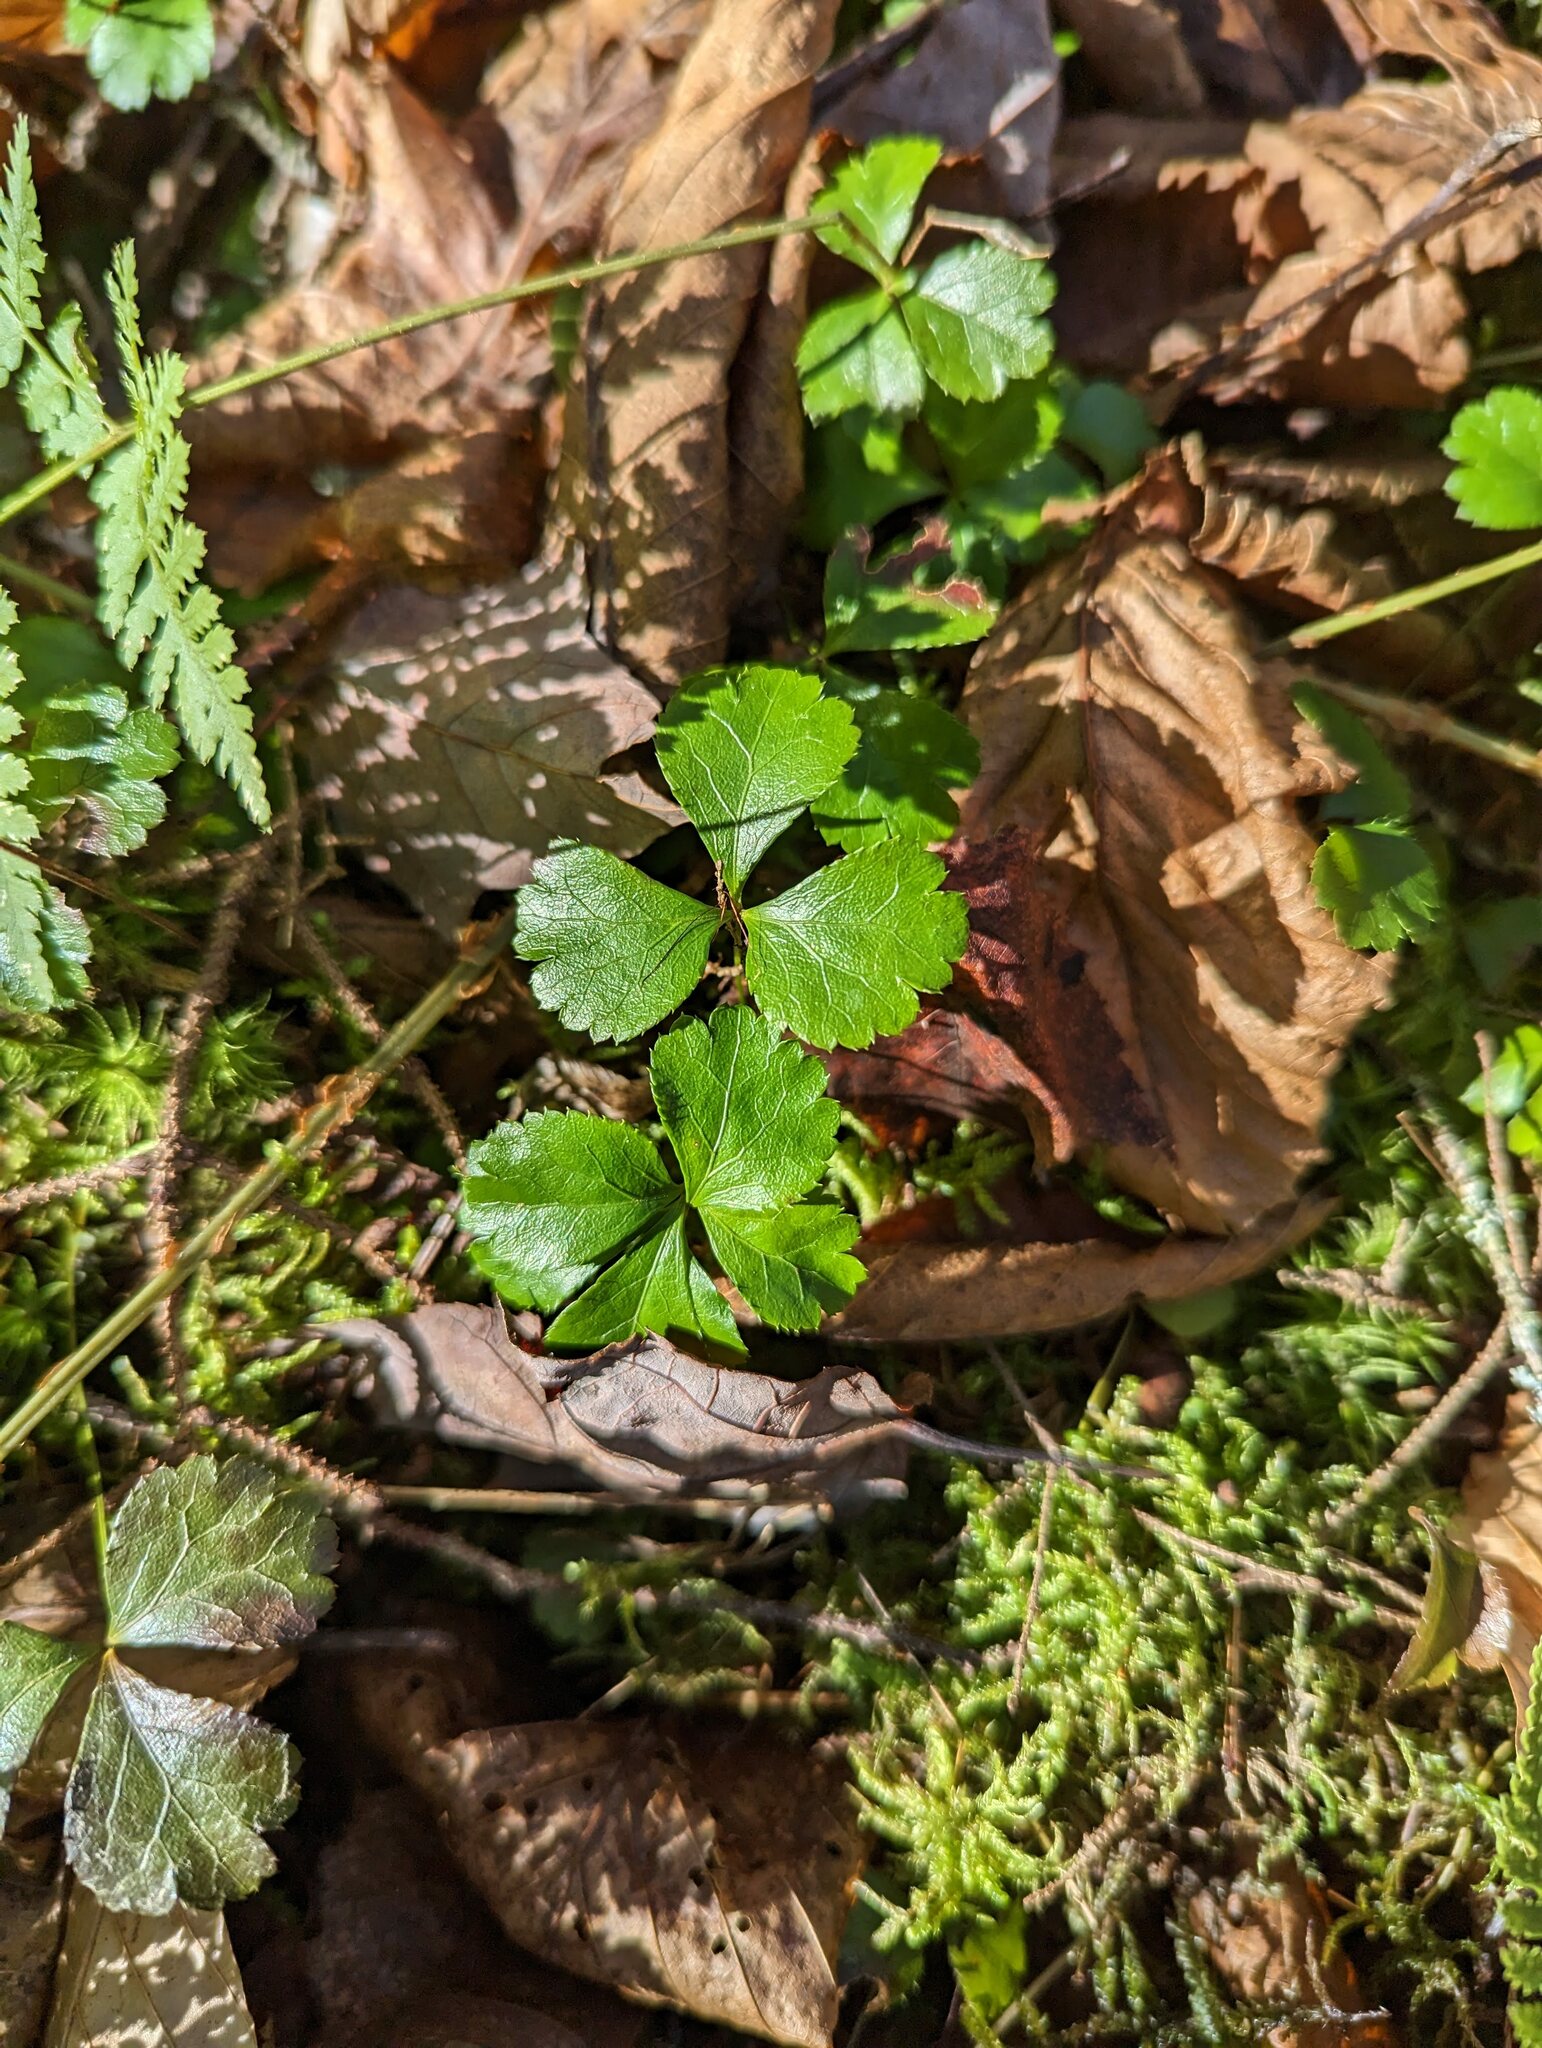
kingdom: Plantae
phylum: Tracheophyta
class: Magnoliopsida
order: Ranunculales
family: Ranunculaceae
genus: Coptis
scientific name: Coptis trifolia
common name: Canker-root
